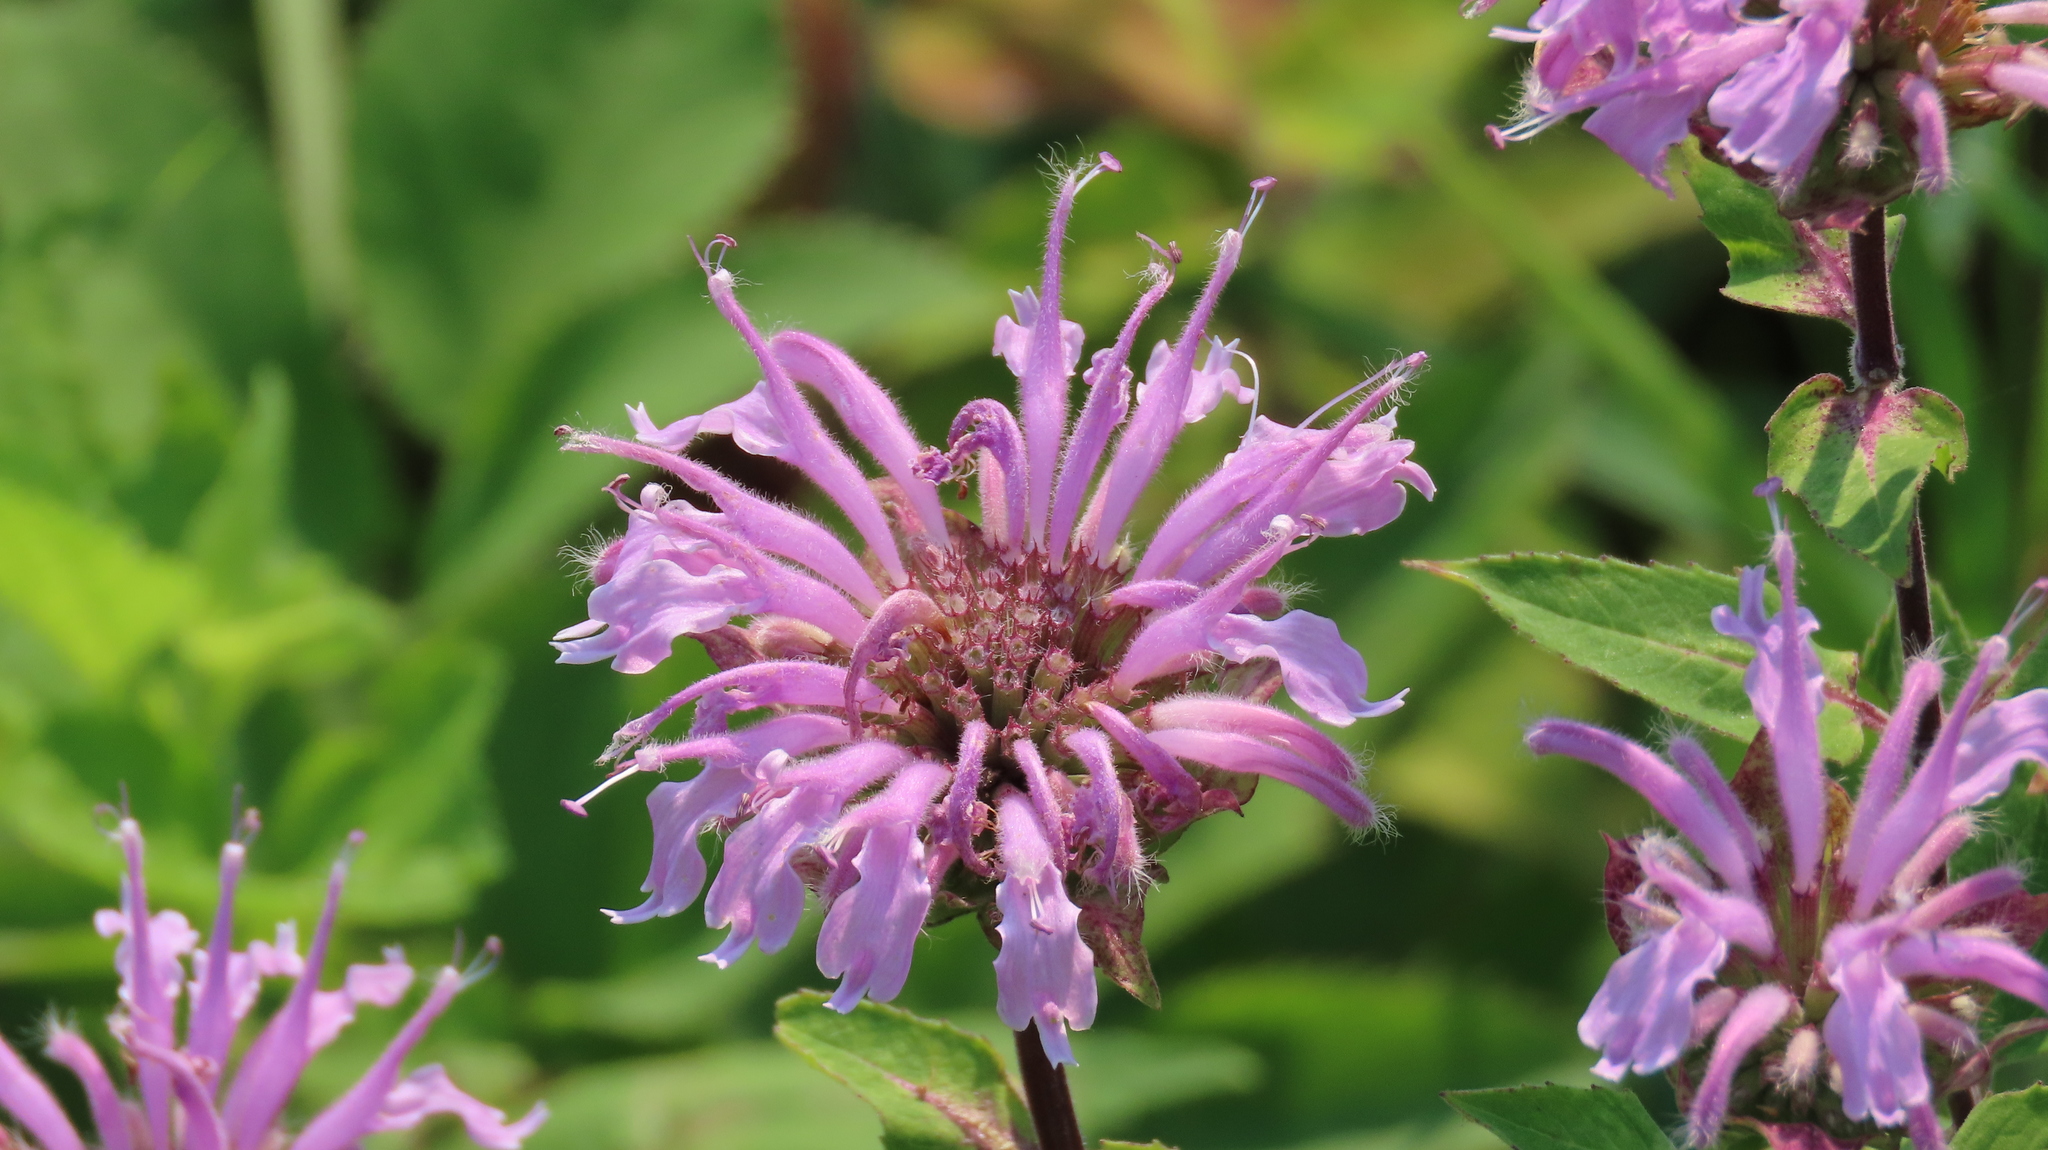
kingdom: Plantae
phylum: Tracheophyta
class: Magnoliopsida
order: Lamiales
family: Lamiaceae
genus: Monarda
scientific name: Monarda fistulosa
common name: Purple beebalm
